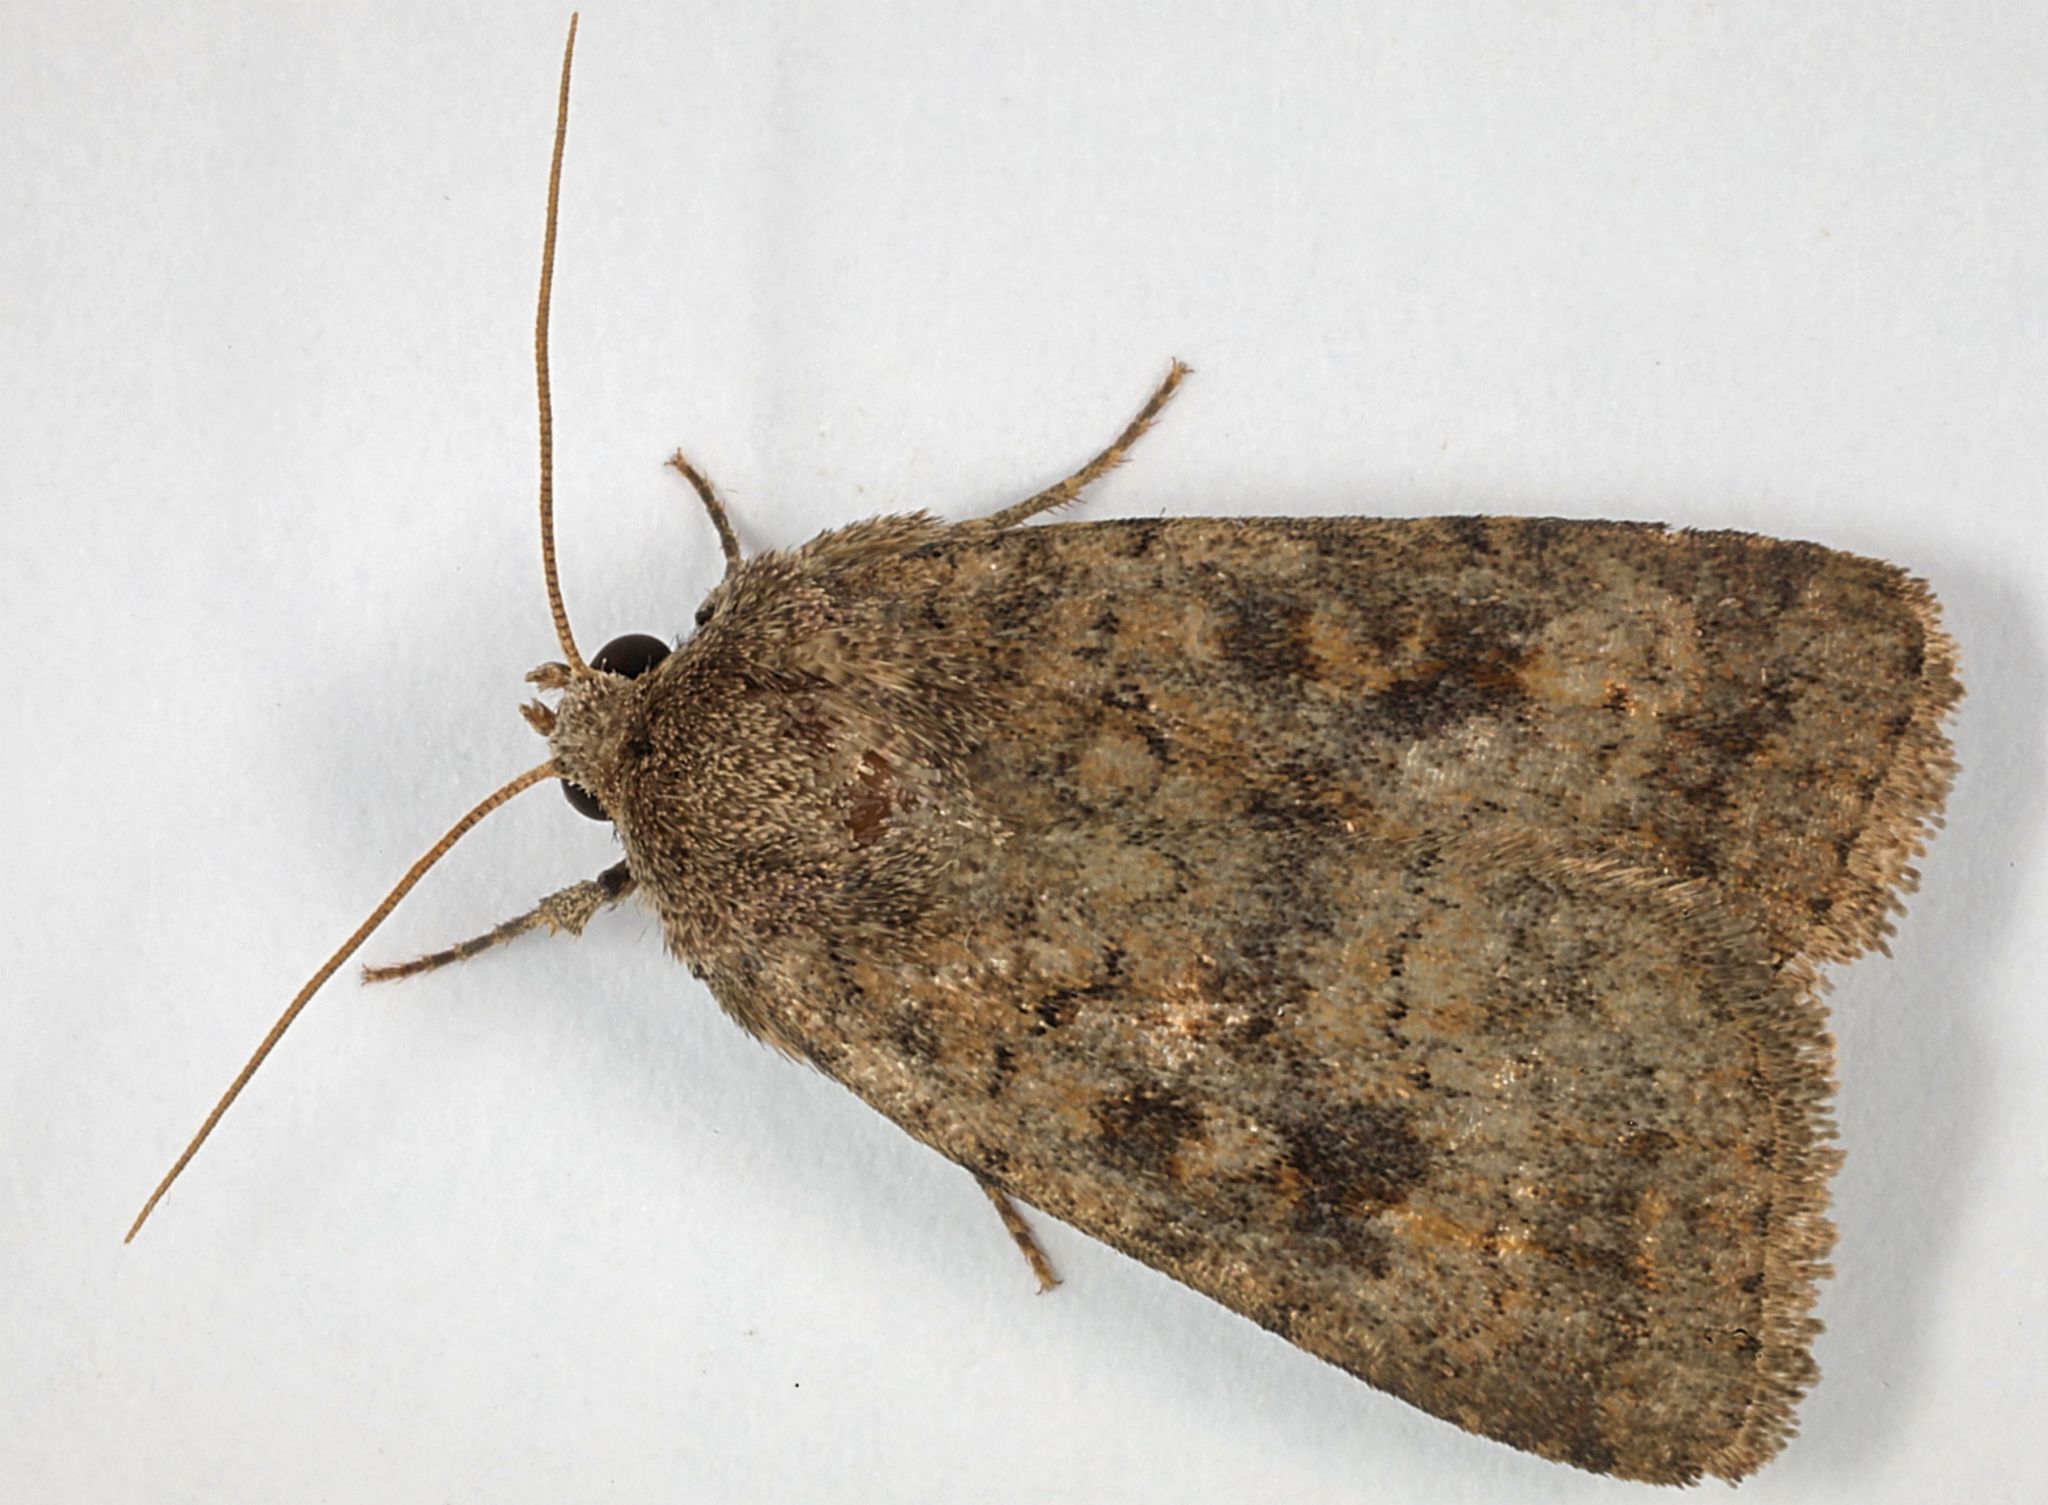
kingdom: Animalia
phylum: Arthropoda
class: Insecta
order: Lepidoptera
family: Noctuidae
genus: Caradrina
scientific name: Caradrina morpheus
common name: Mottled rustic
